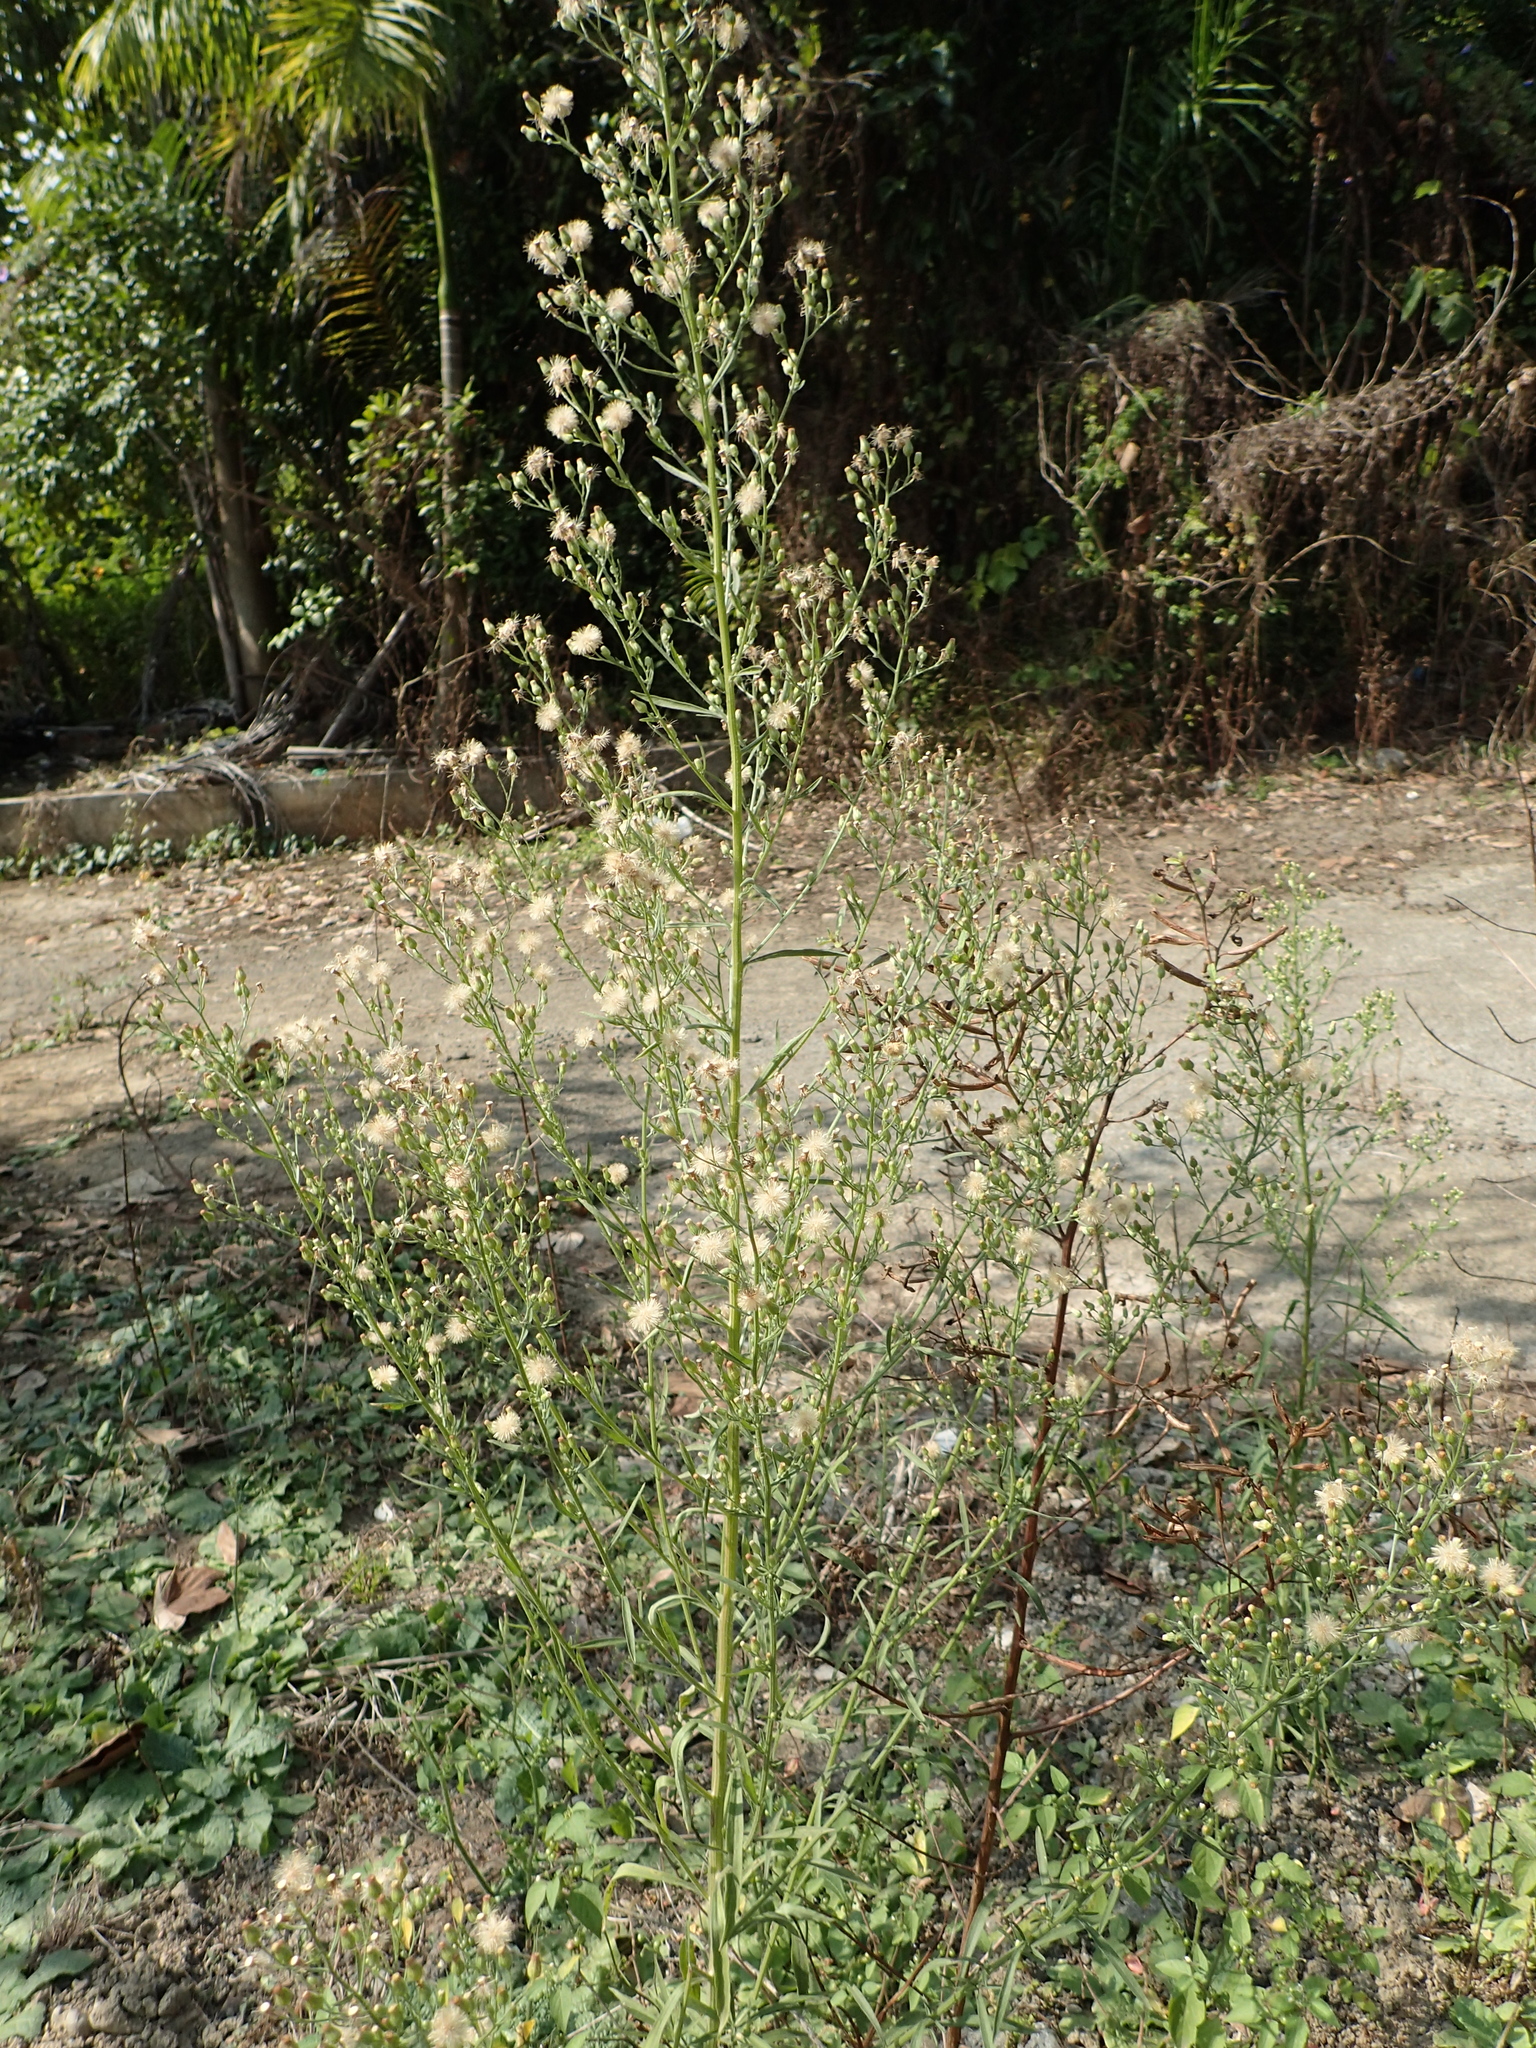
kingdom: Plantae
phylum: Tracheophyta
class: Magnoliopsida
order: Asterales
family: Asteraceae
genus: Erigeron
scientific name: Erigeron sumatrensis
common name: Daisy
